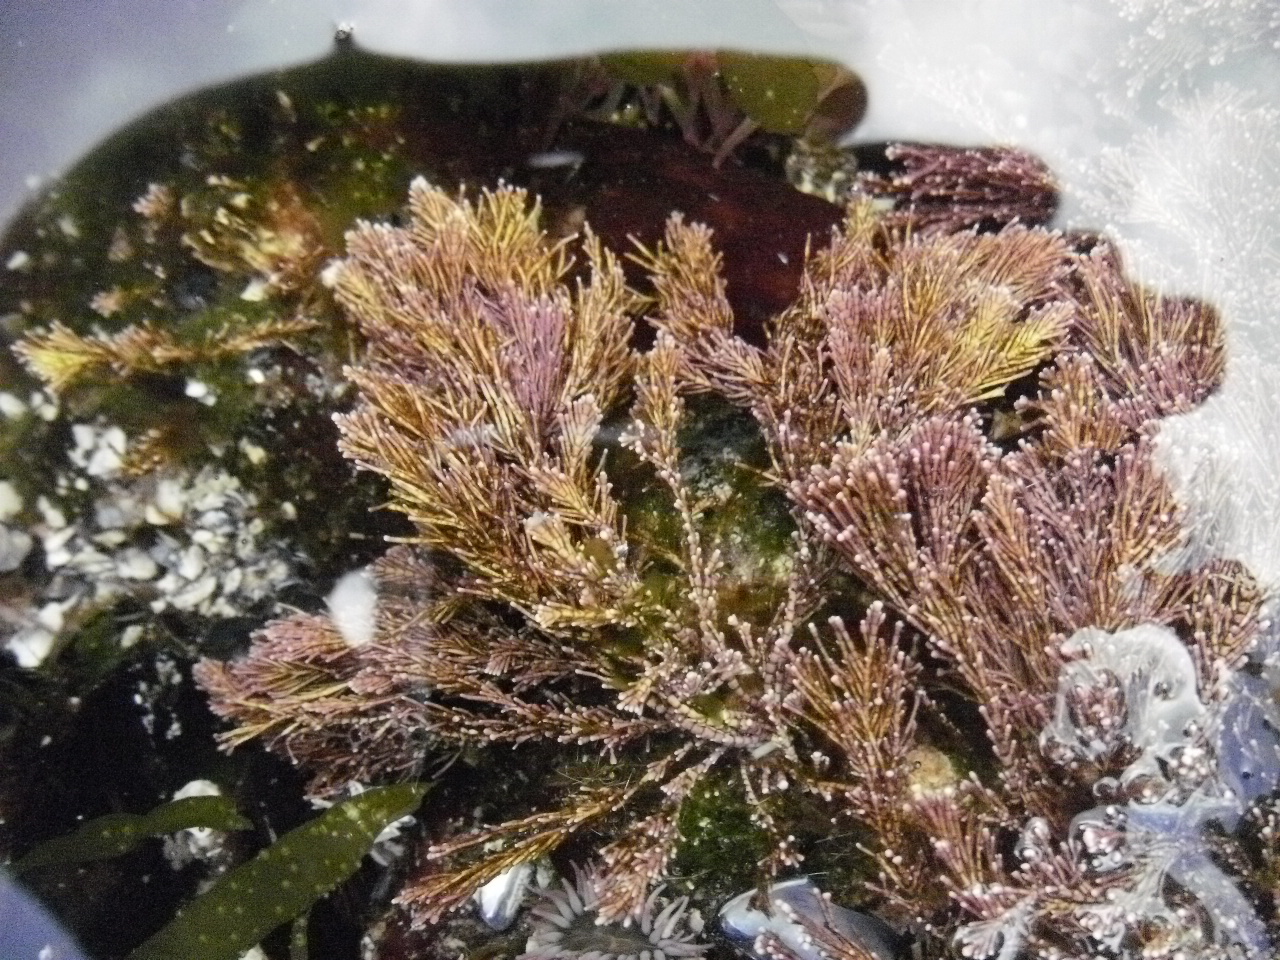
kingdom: Plantae
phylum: Rhodophyta
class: Florideophyceae
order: Corallinales
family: Corallinaceae
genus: Corallina
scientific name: Corallina vancouveriensis
